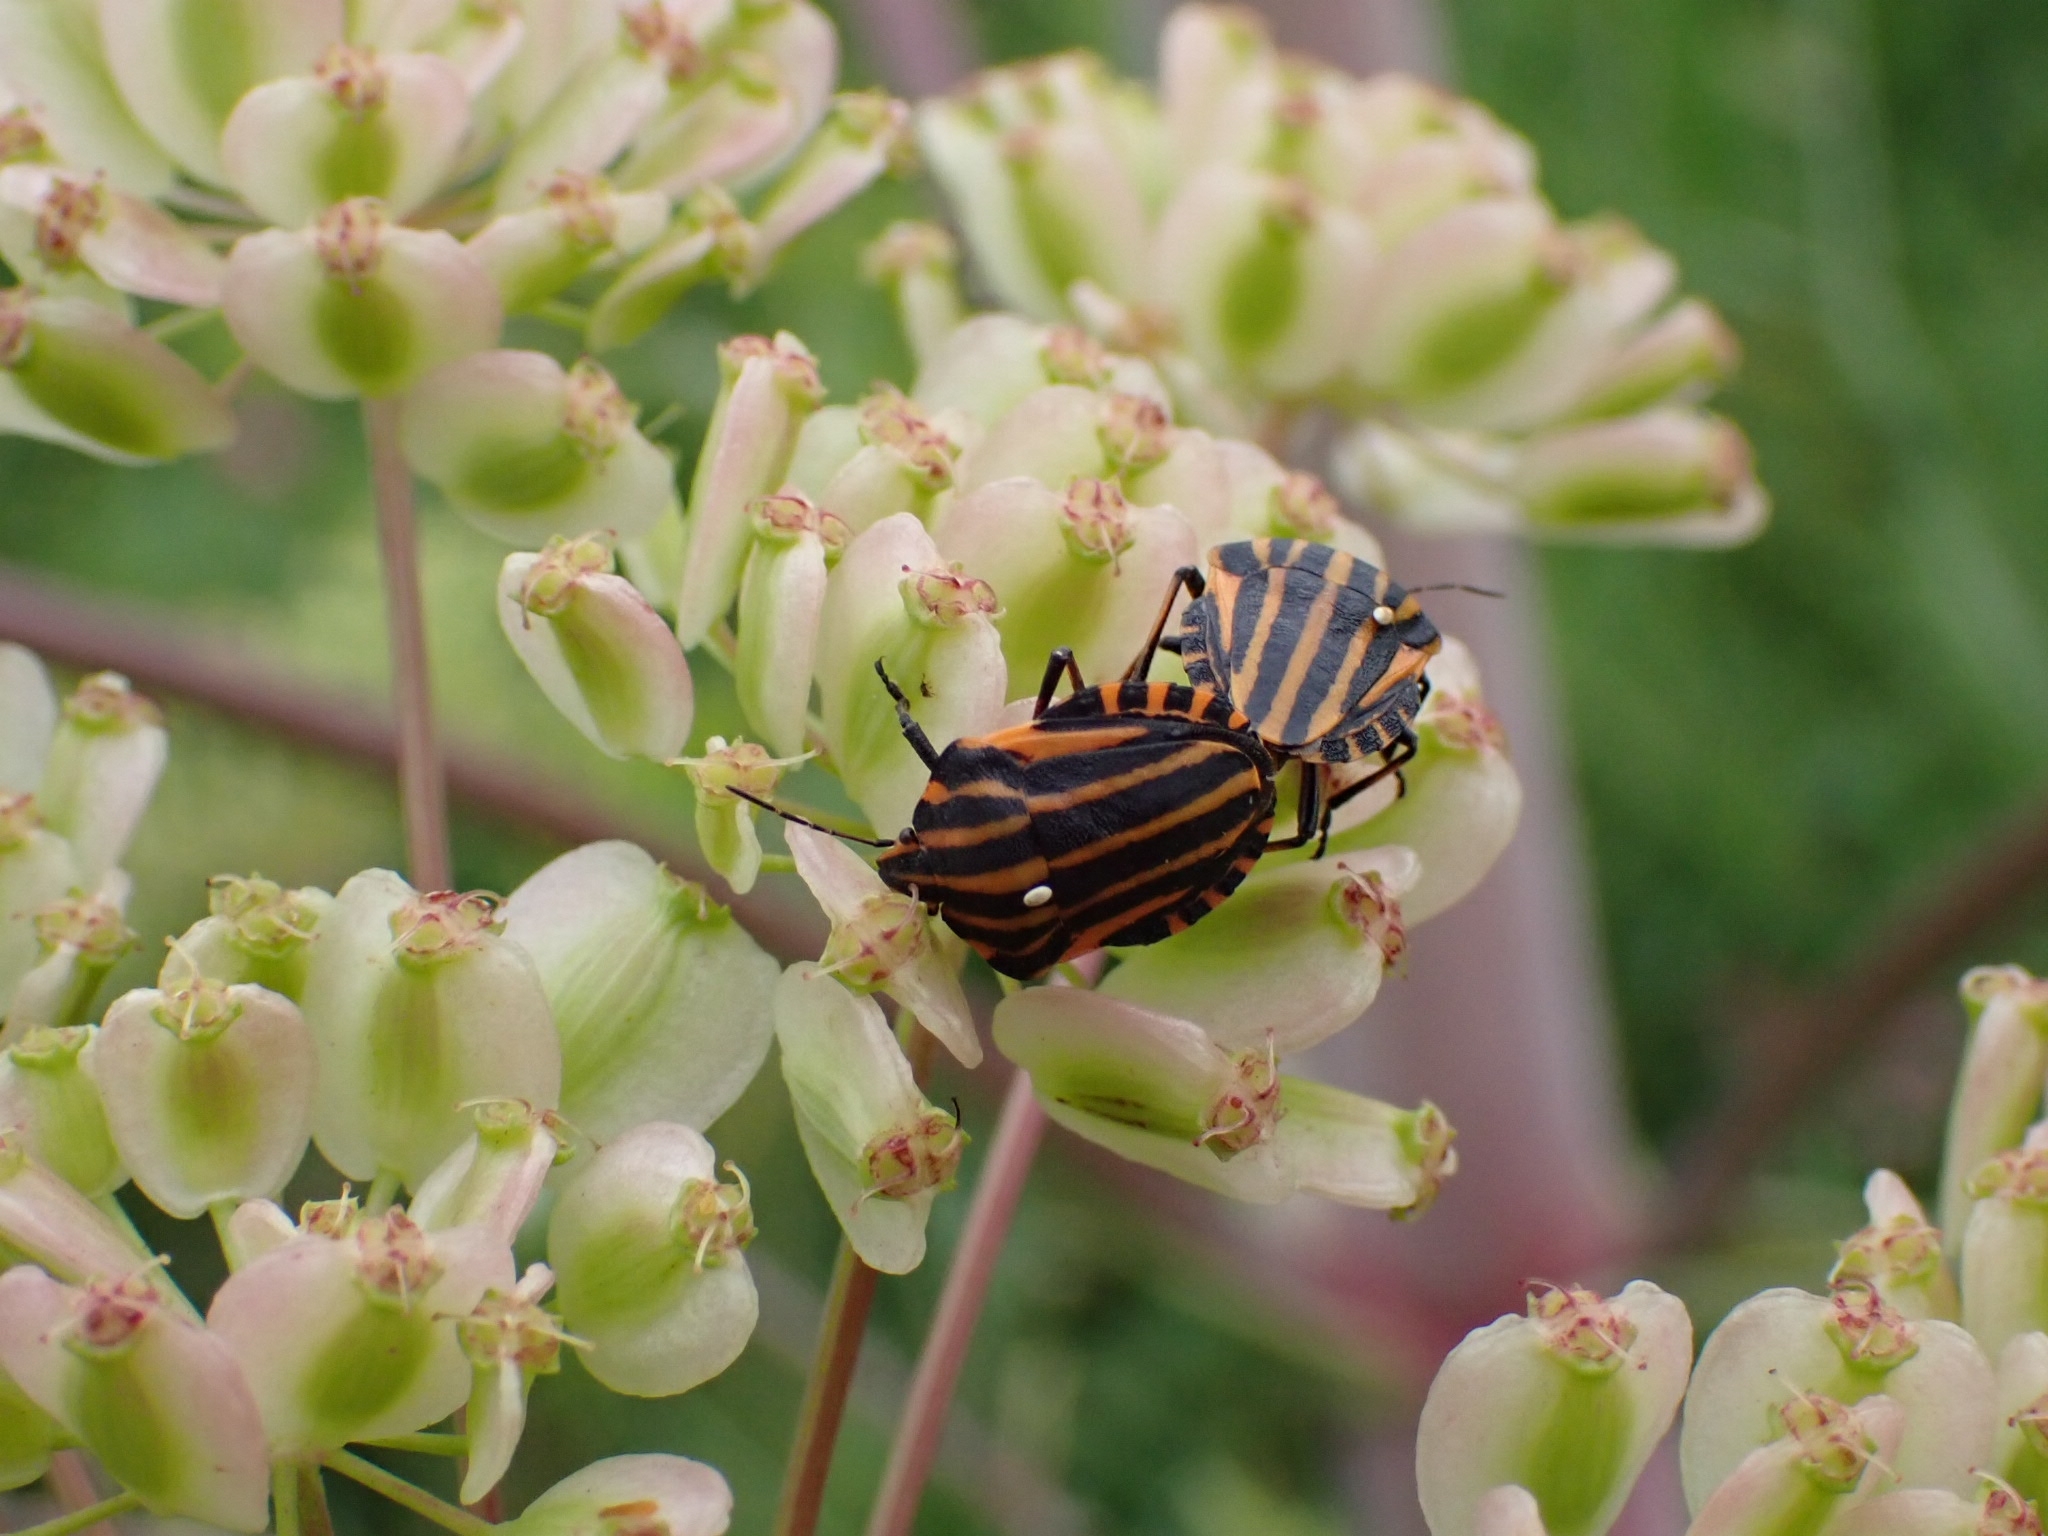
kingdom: Animalia
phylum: Arthropoda
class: Insecta
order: Hemiptera
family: Pentatomidae
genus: Graphosoma
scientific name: Graphosoma italicum
